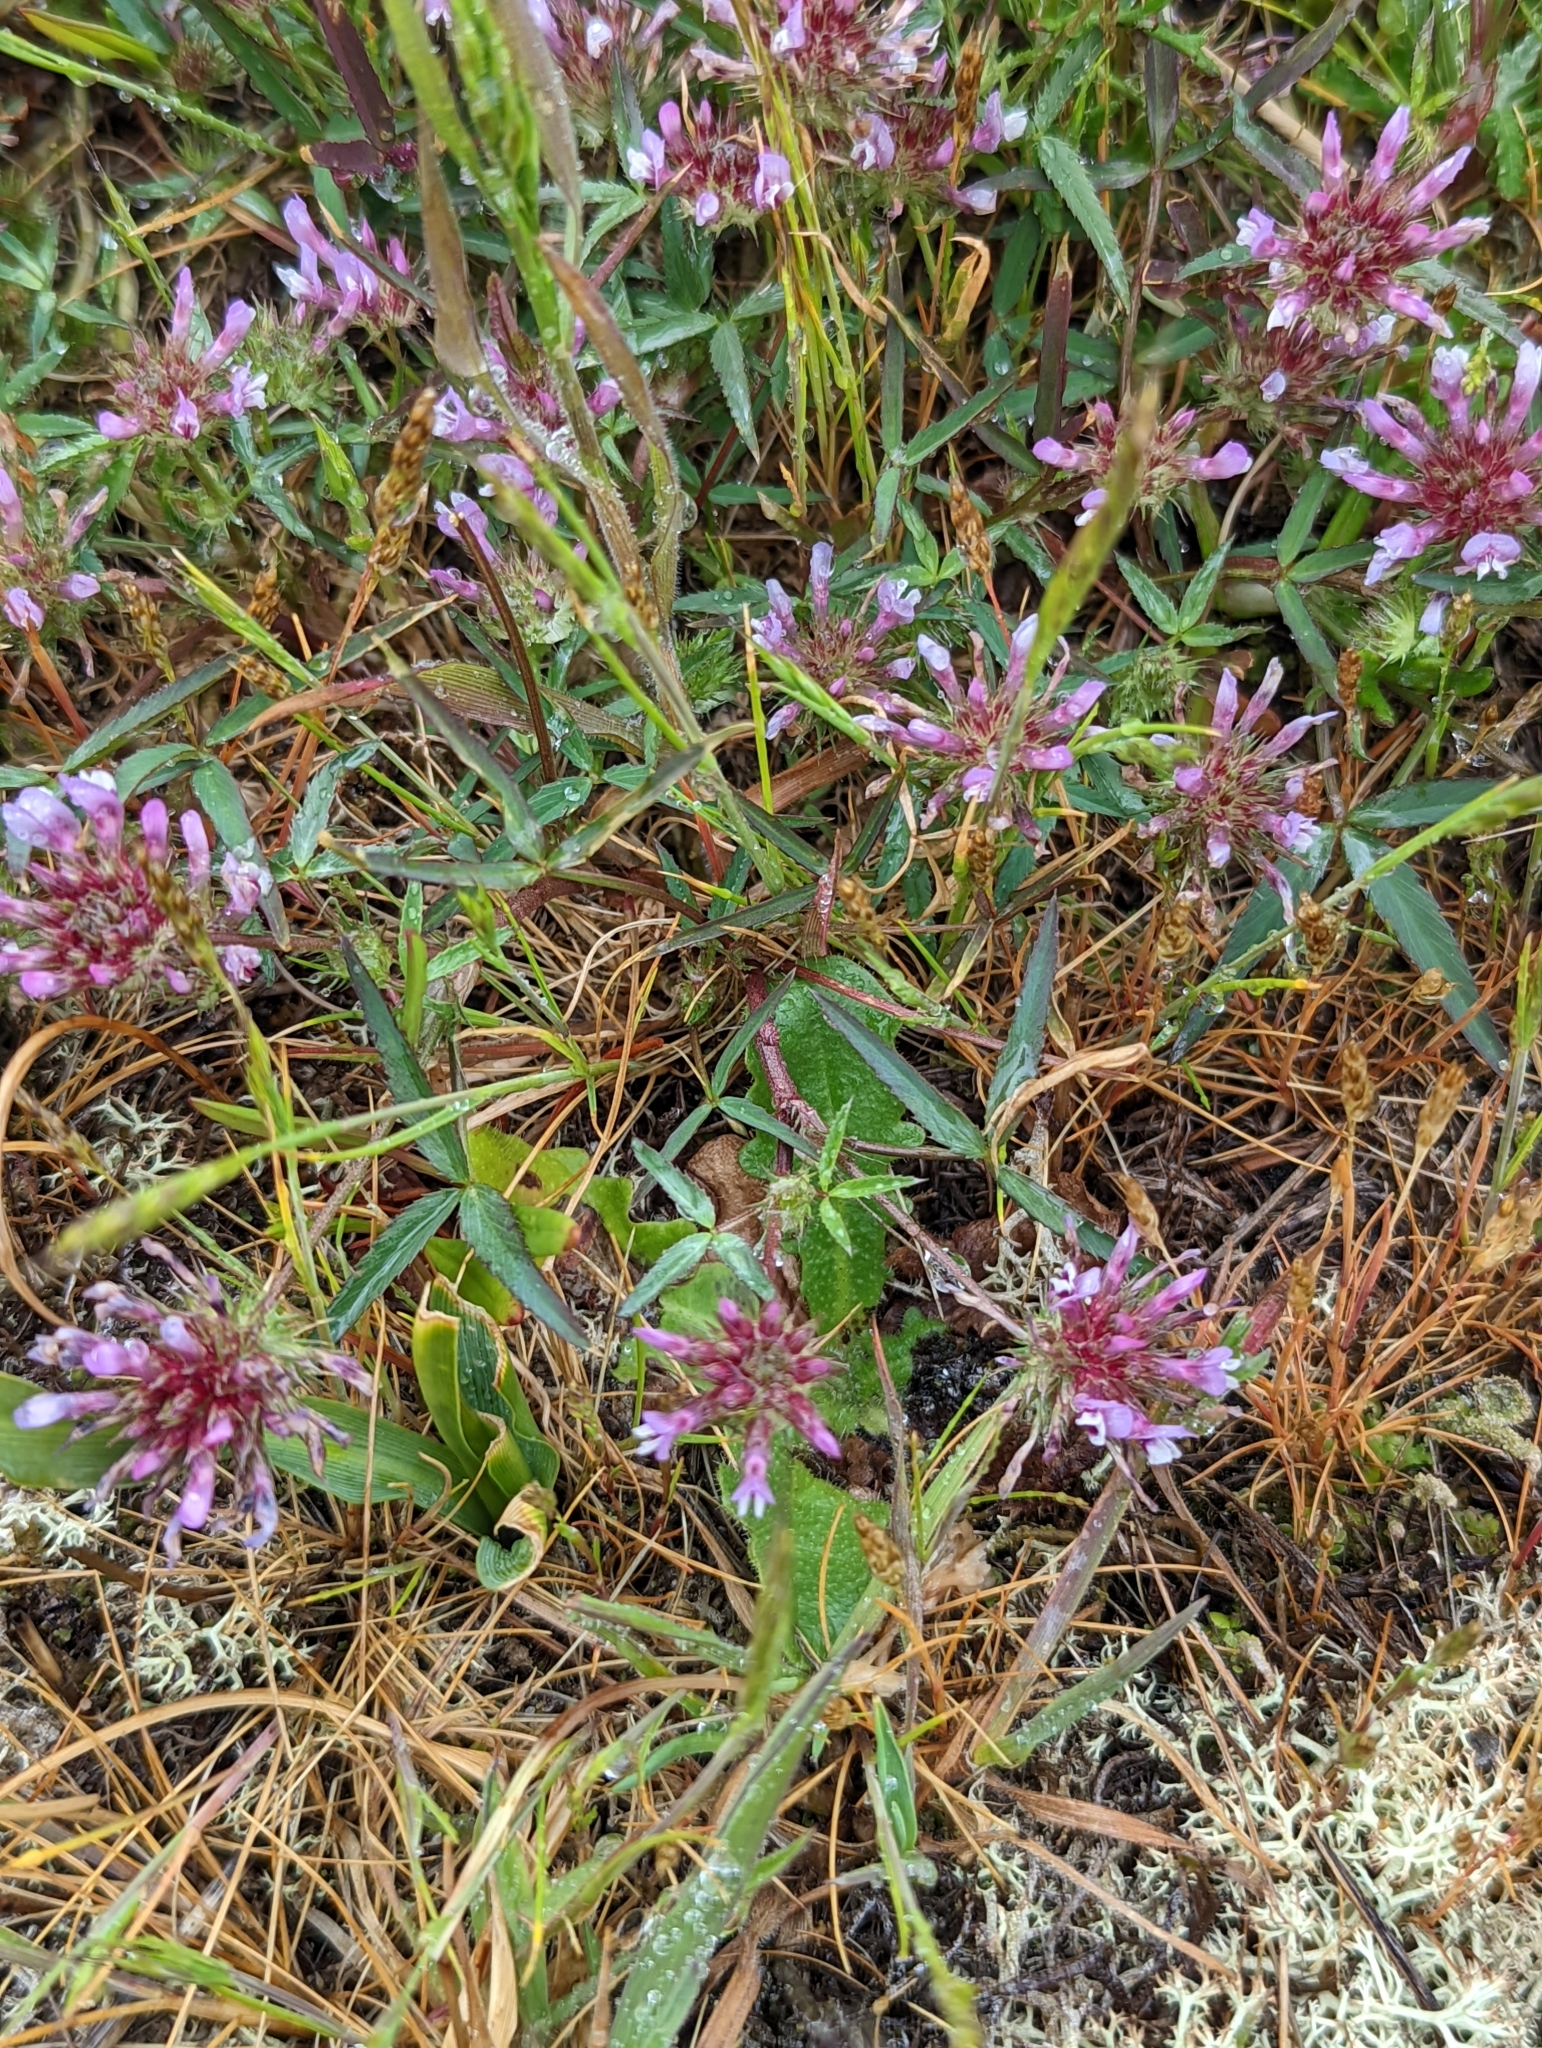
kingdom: Plantae
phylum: Tracheophyta
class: Magnoliopsida
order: Fabales
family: Fabaceae
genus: Trifolium
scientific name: Trifolium willdenovii
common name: Tomcat clover
